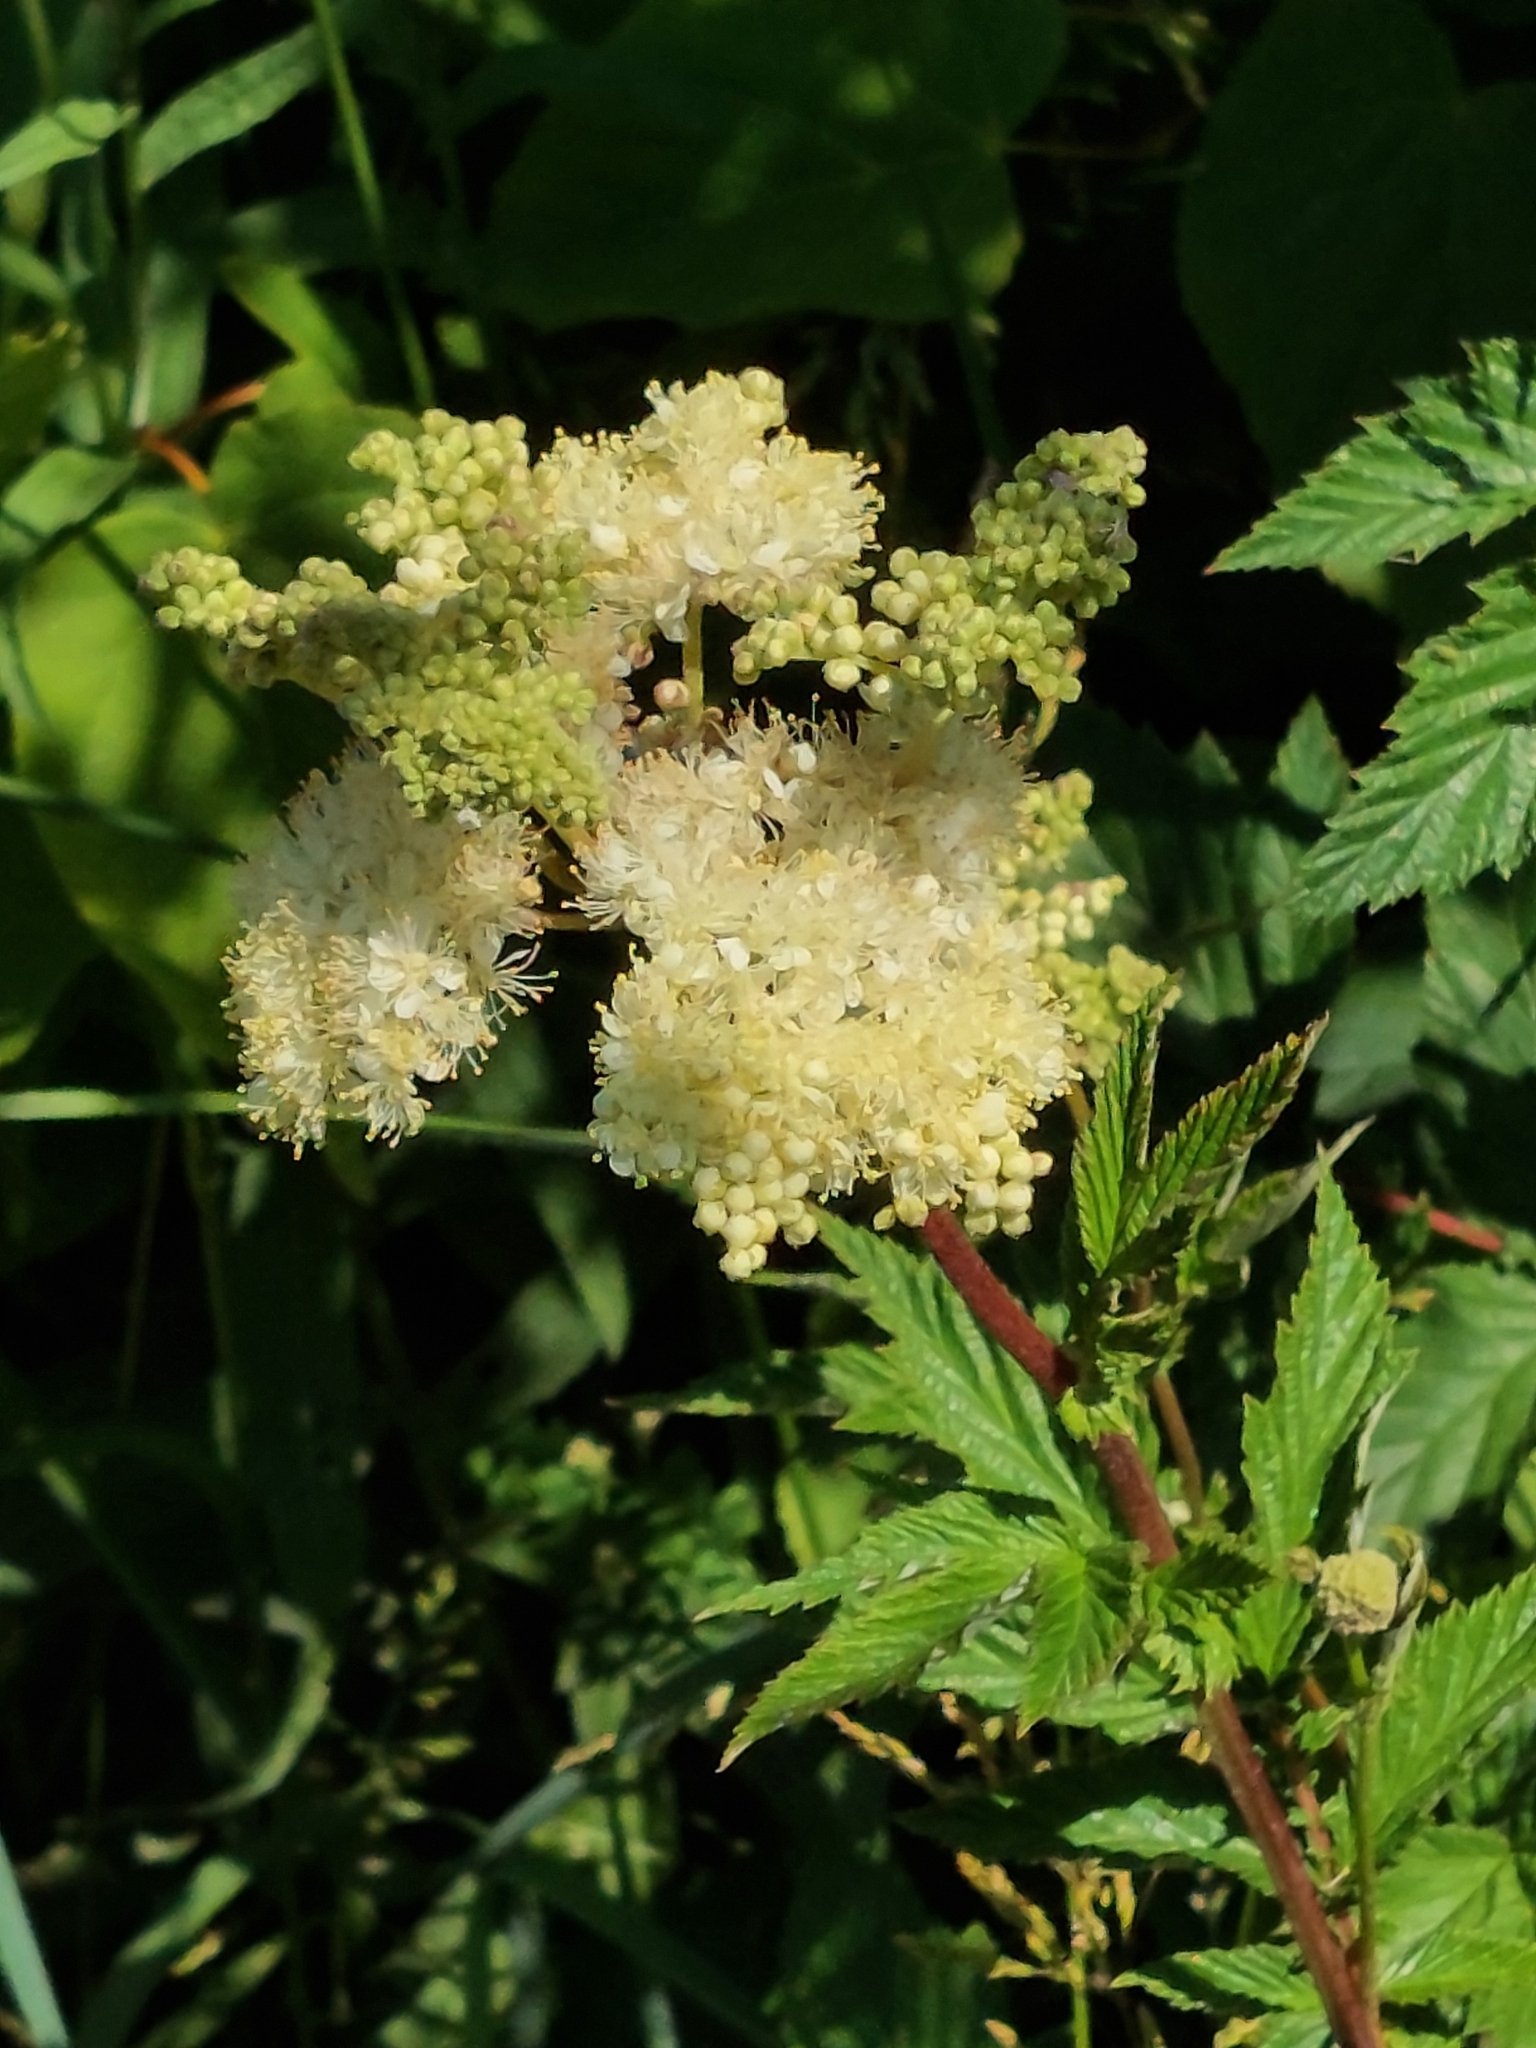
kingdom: Plantae
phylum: Tracheophyta
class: Magnoliopsida
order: Rosales
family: Rosaceae
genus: Filipendula
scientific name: Filipendula ulmaria
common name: Meadowsweet
